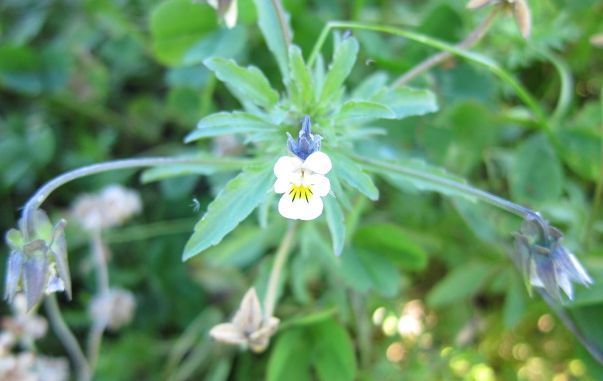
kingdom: Plantae
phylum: Tracheophyta
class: Magnoliopsida
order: Malpighiales
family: Violaceae
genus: Viola
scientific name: Viola arvensis
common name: Field pansy
